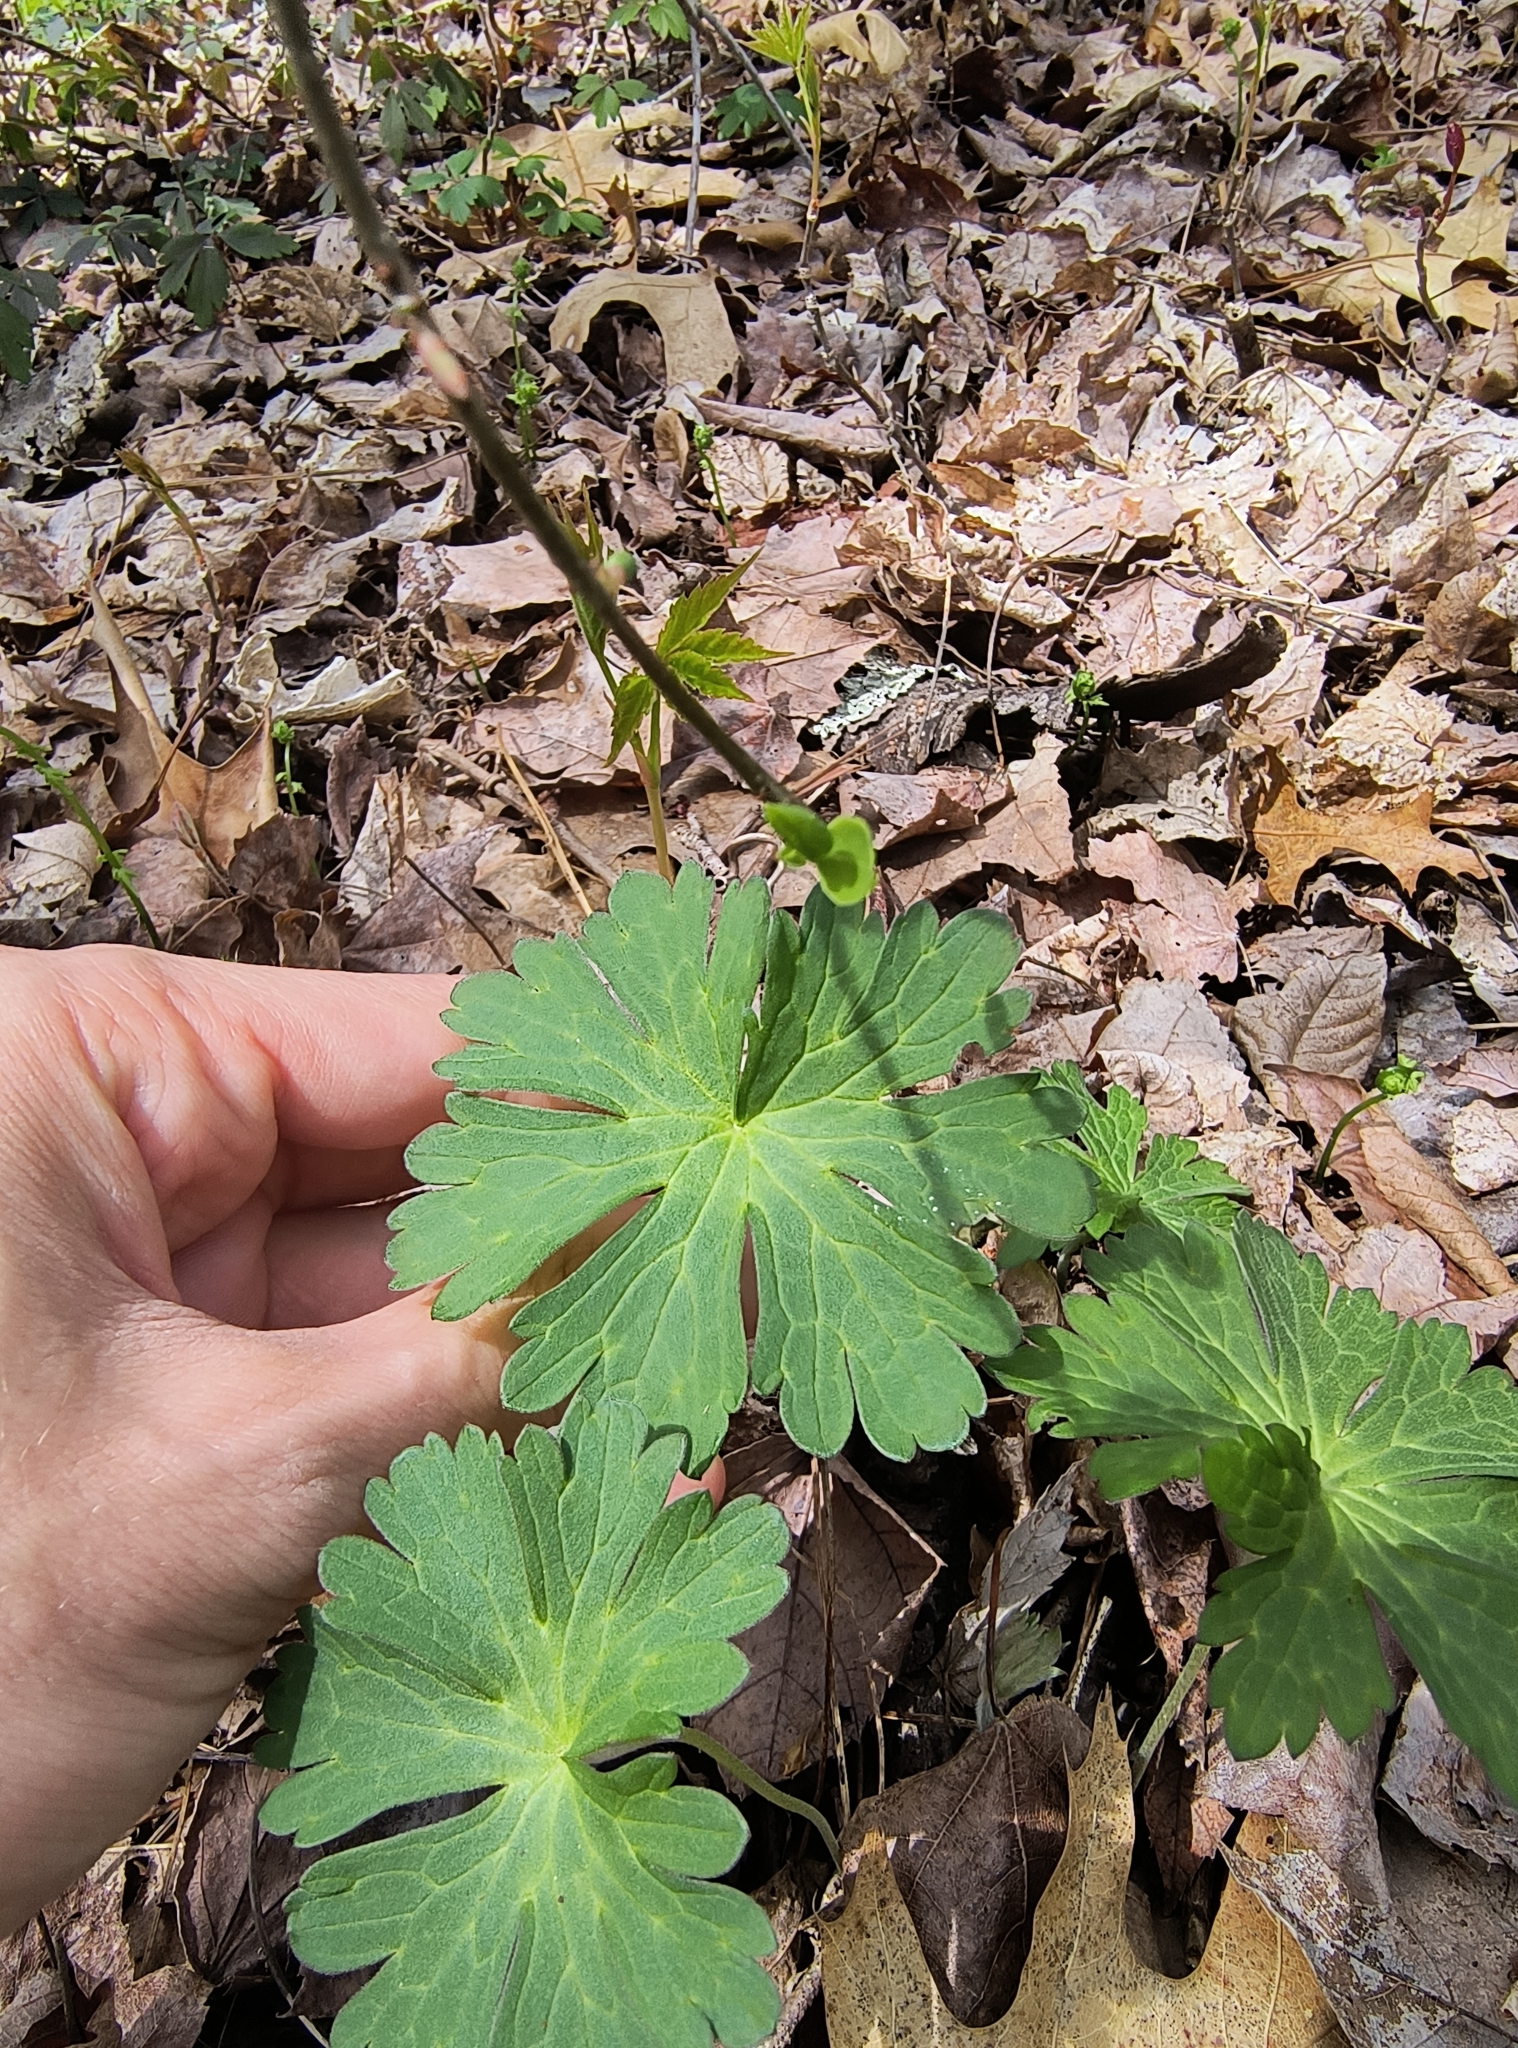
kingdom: Plantae
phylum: Tracheophyta
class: Magnoliopsida
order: Geraniales
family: Geraniaceae
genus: Geranium
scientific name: Geranium maculatum
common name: Spotted geranium
